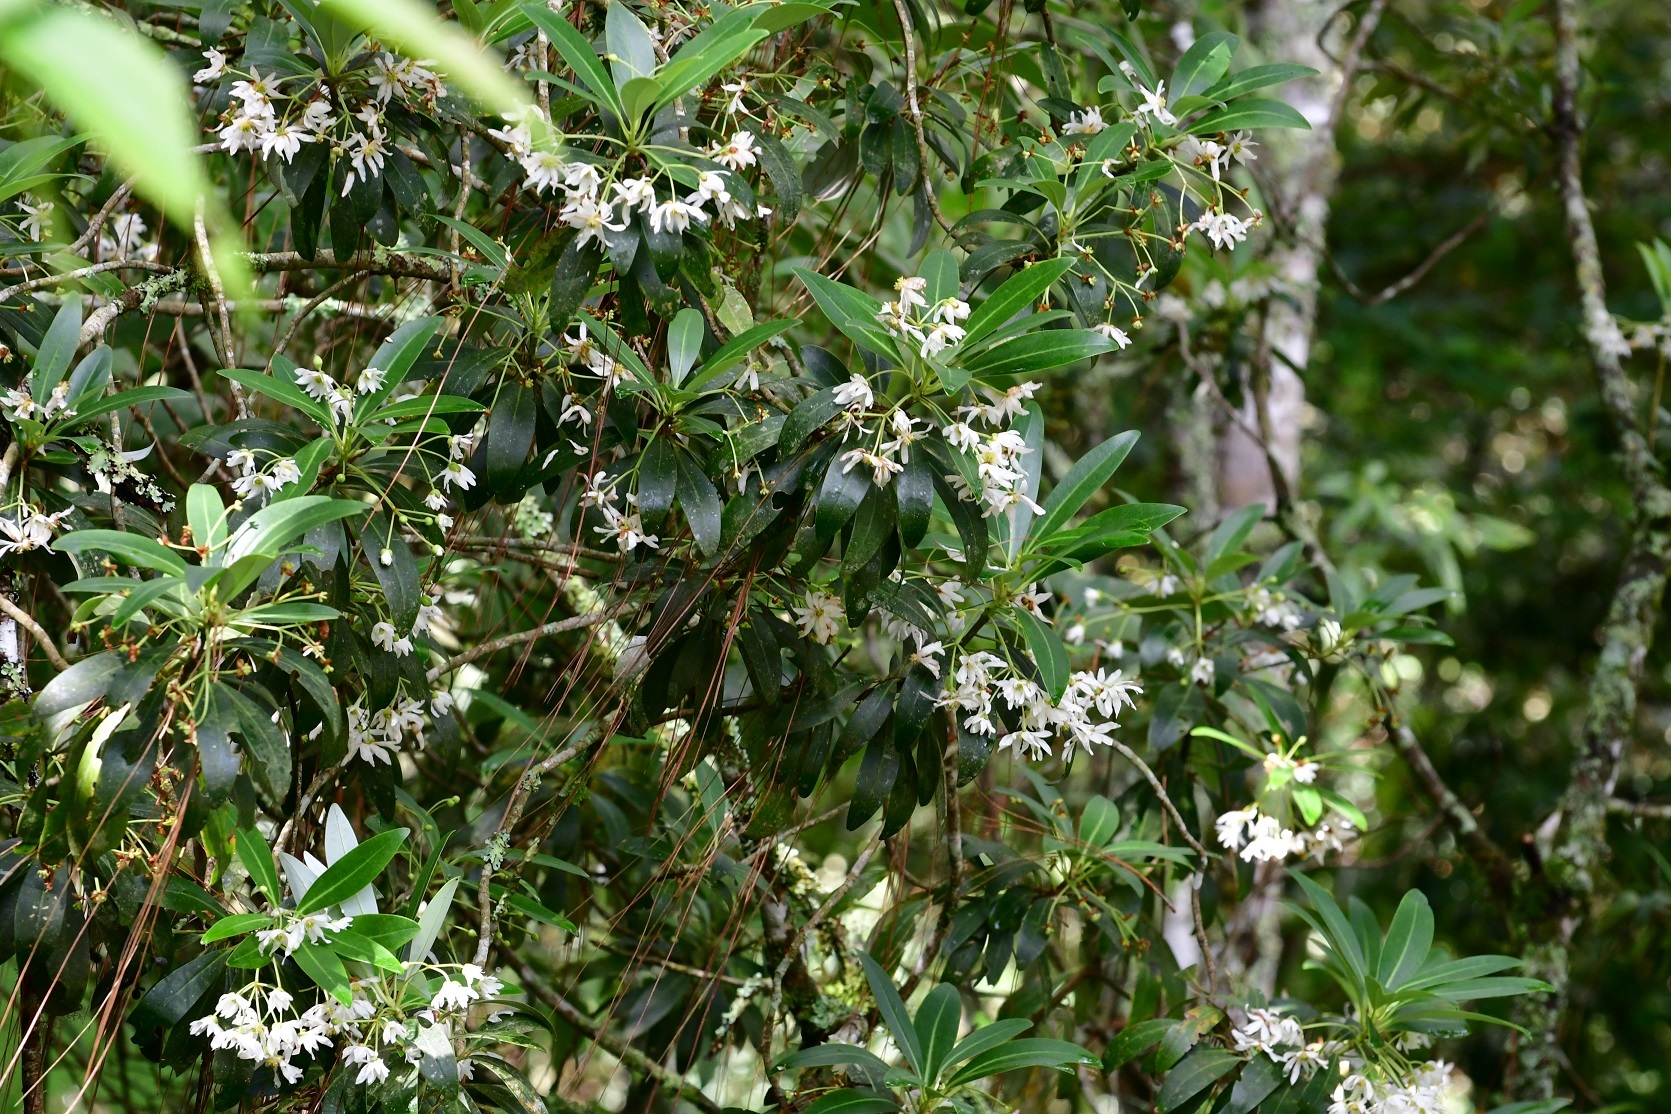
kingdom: Plantae
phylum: Tracheophyta
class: Magnoliopsida
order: Canellales
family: Winteraceae
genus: Drimys
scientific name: Drimys granadensis
